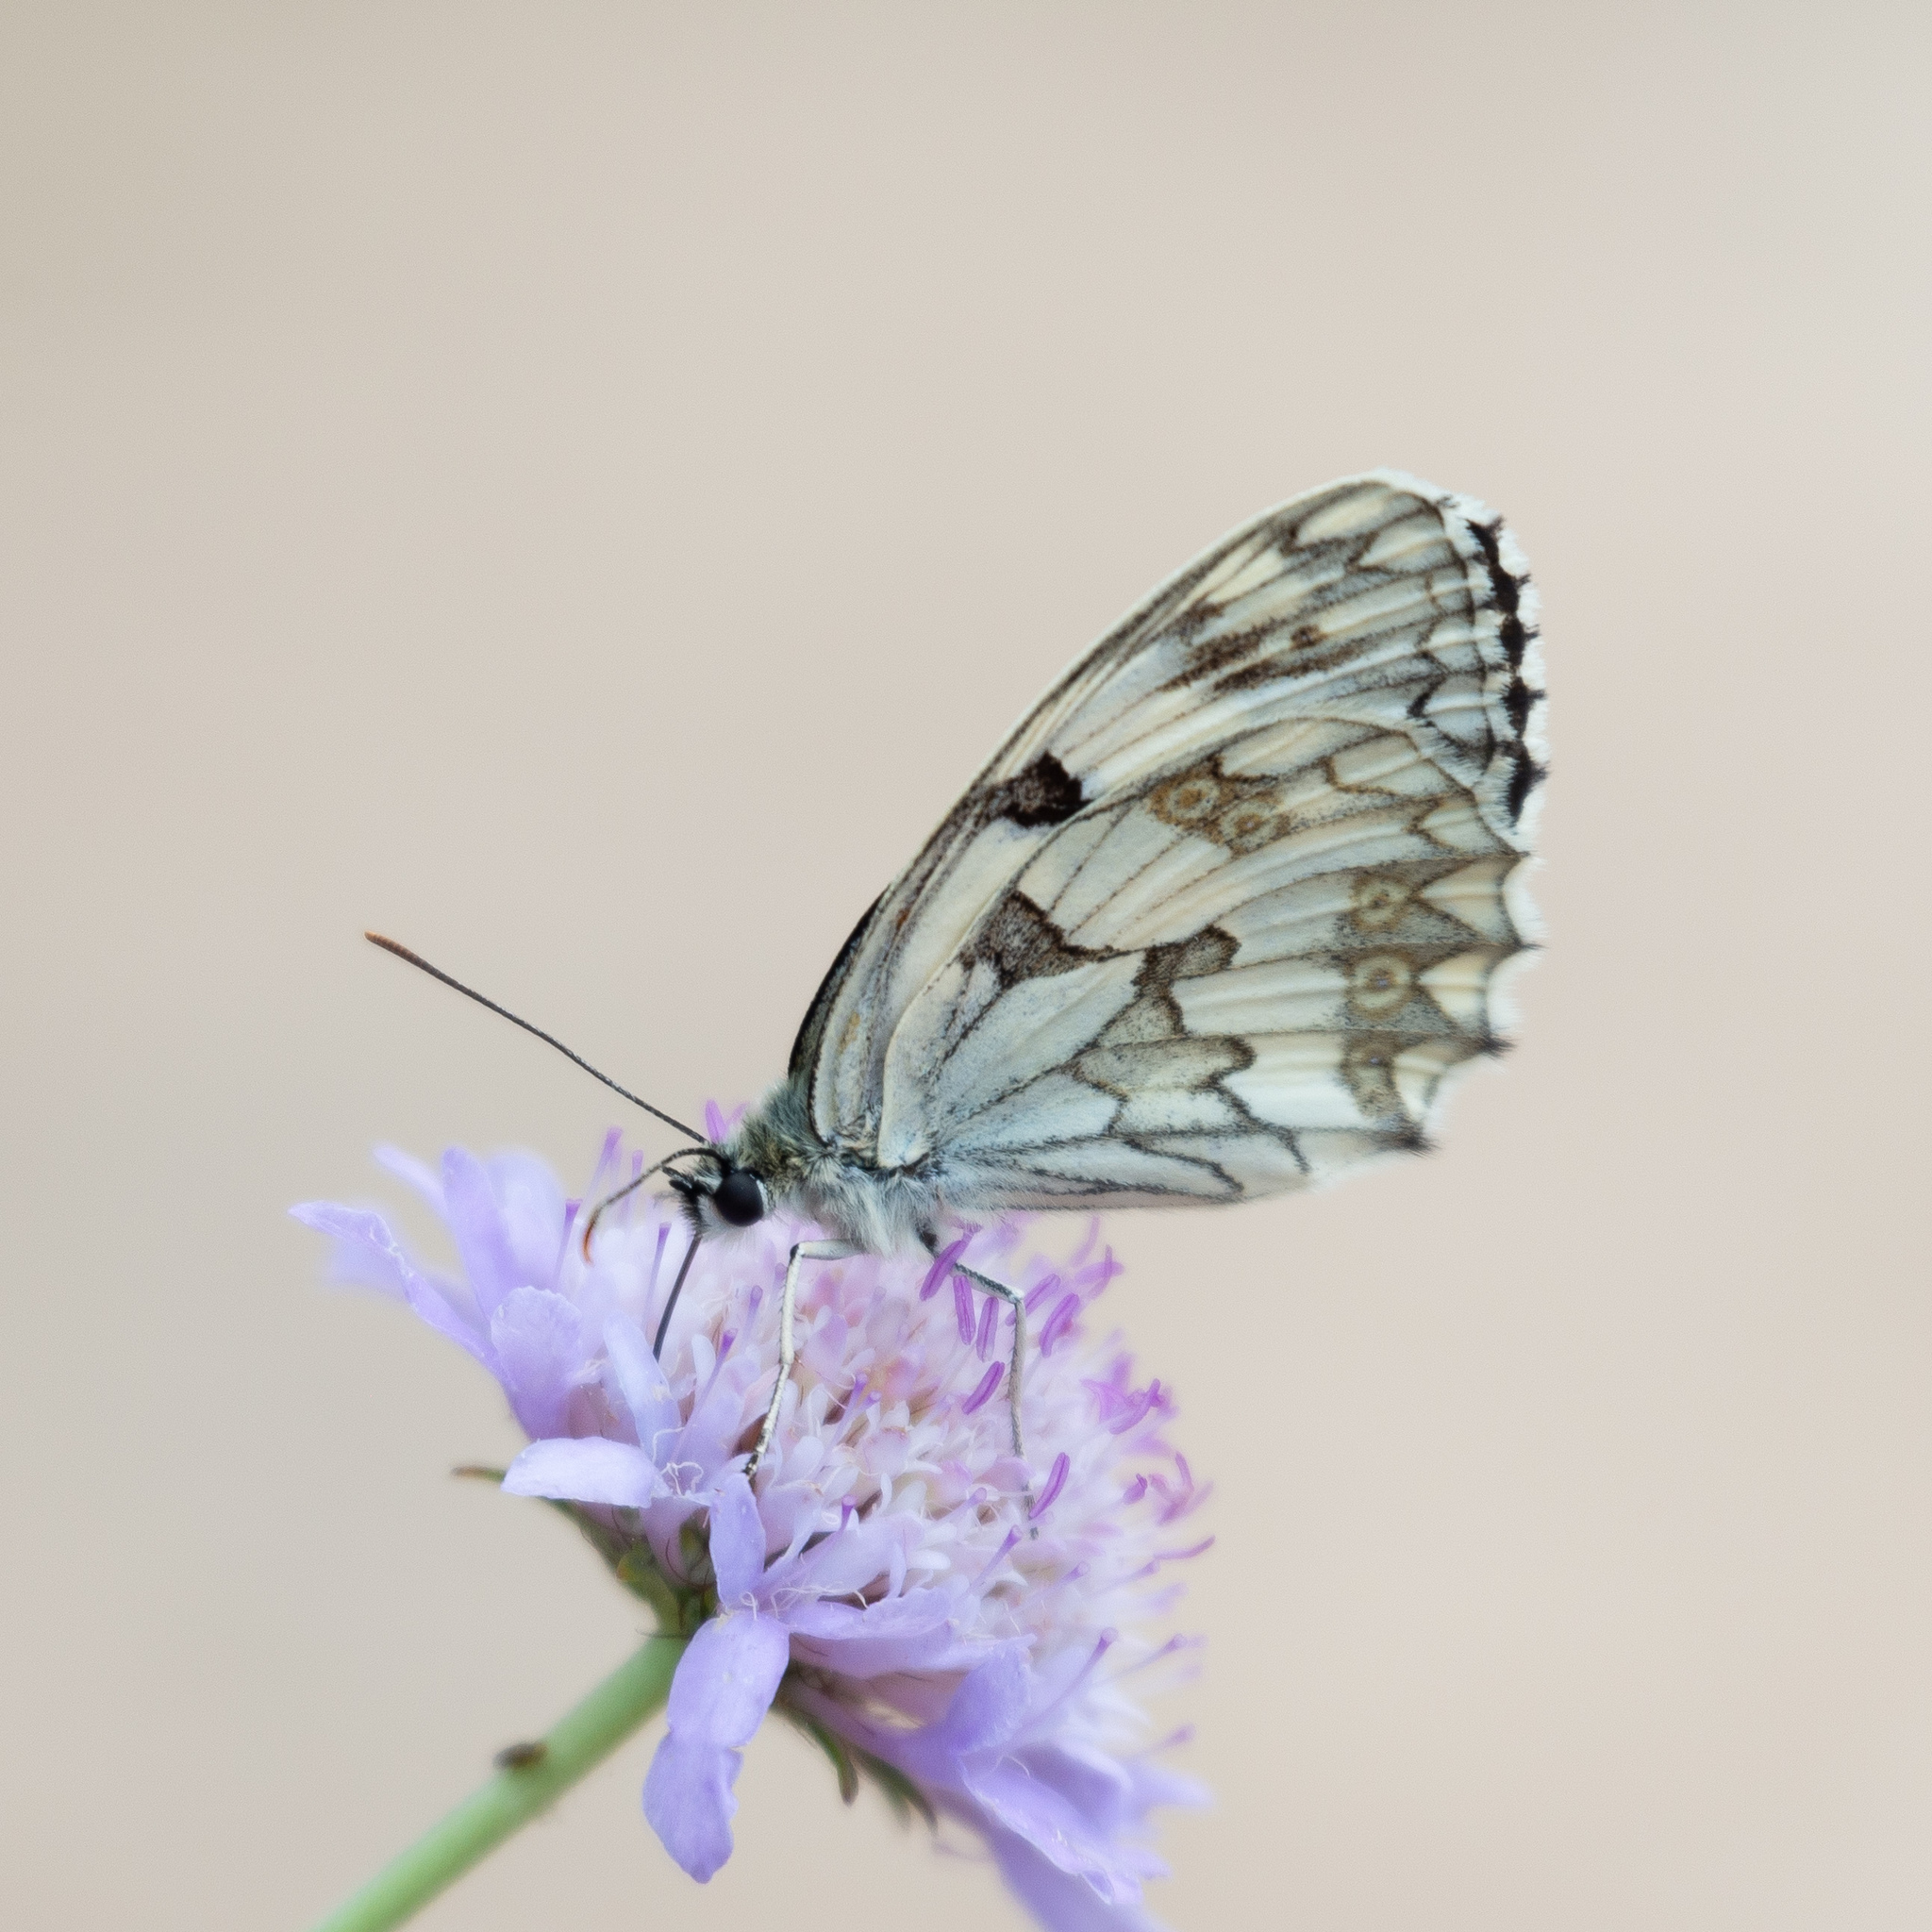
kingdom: Animalia
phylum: Arthropoda
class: Insecta
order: Lepidoptera
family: Nymphalidae
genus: Melanargia
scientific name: Melanargia lachesis
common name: Iberian marbled white
